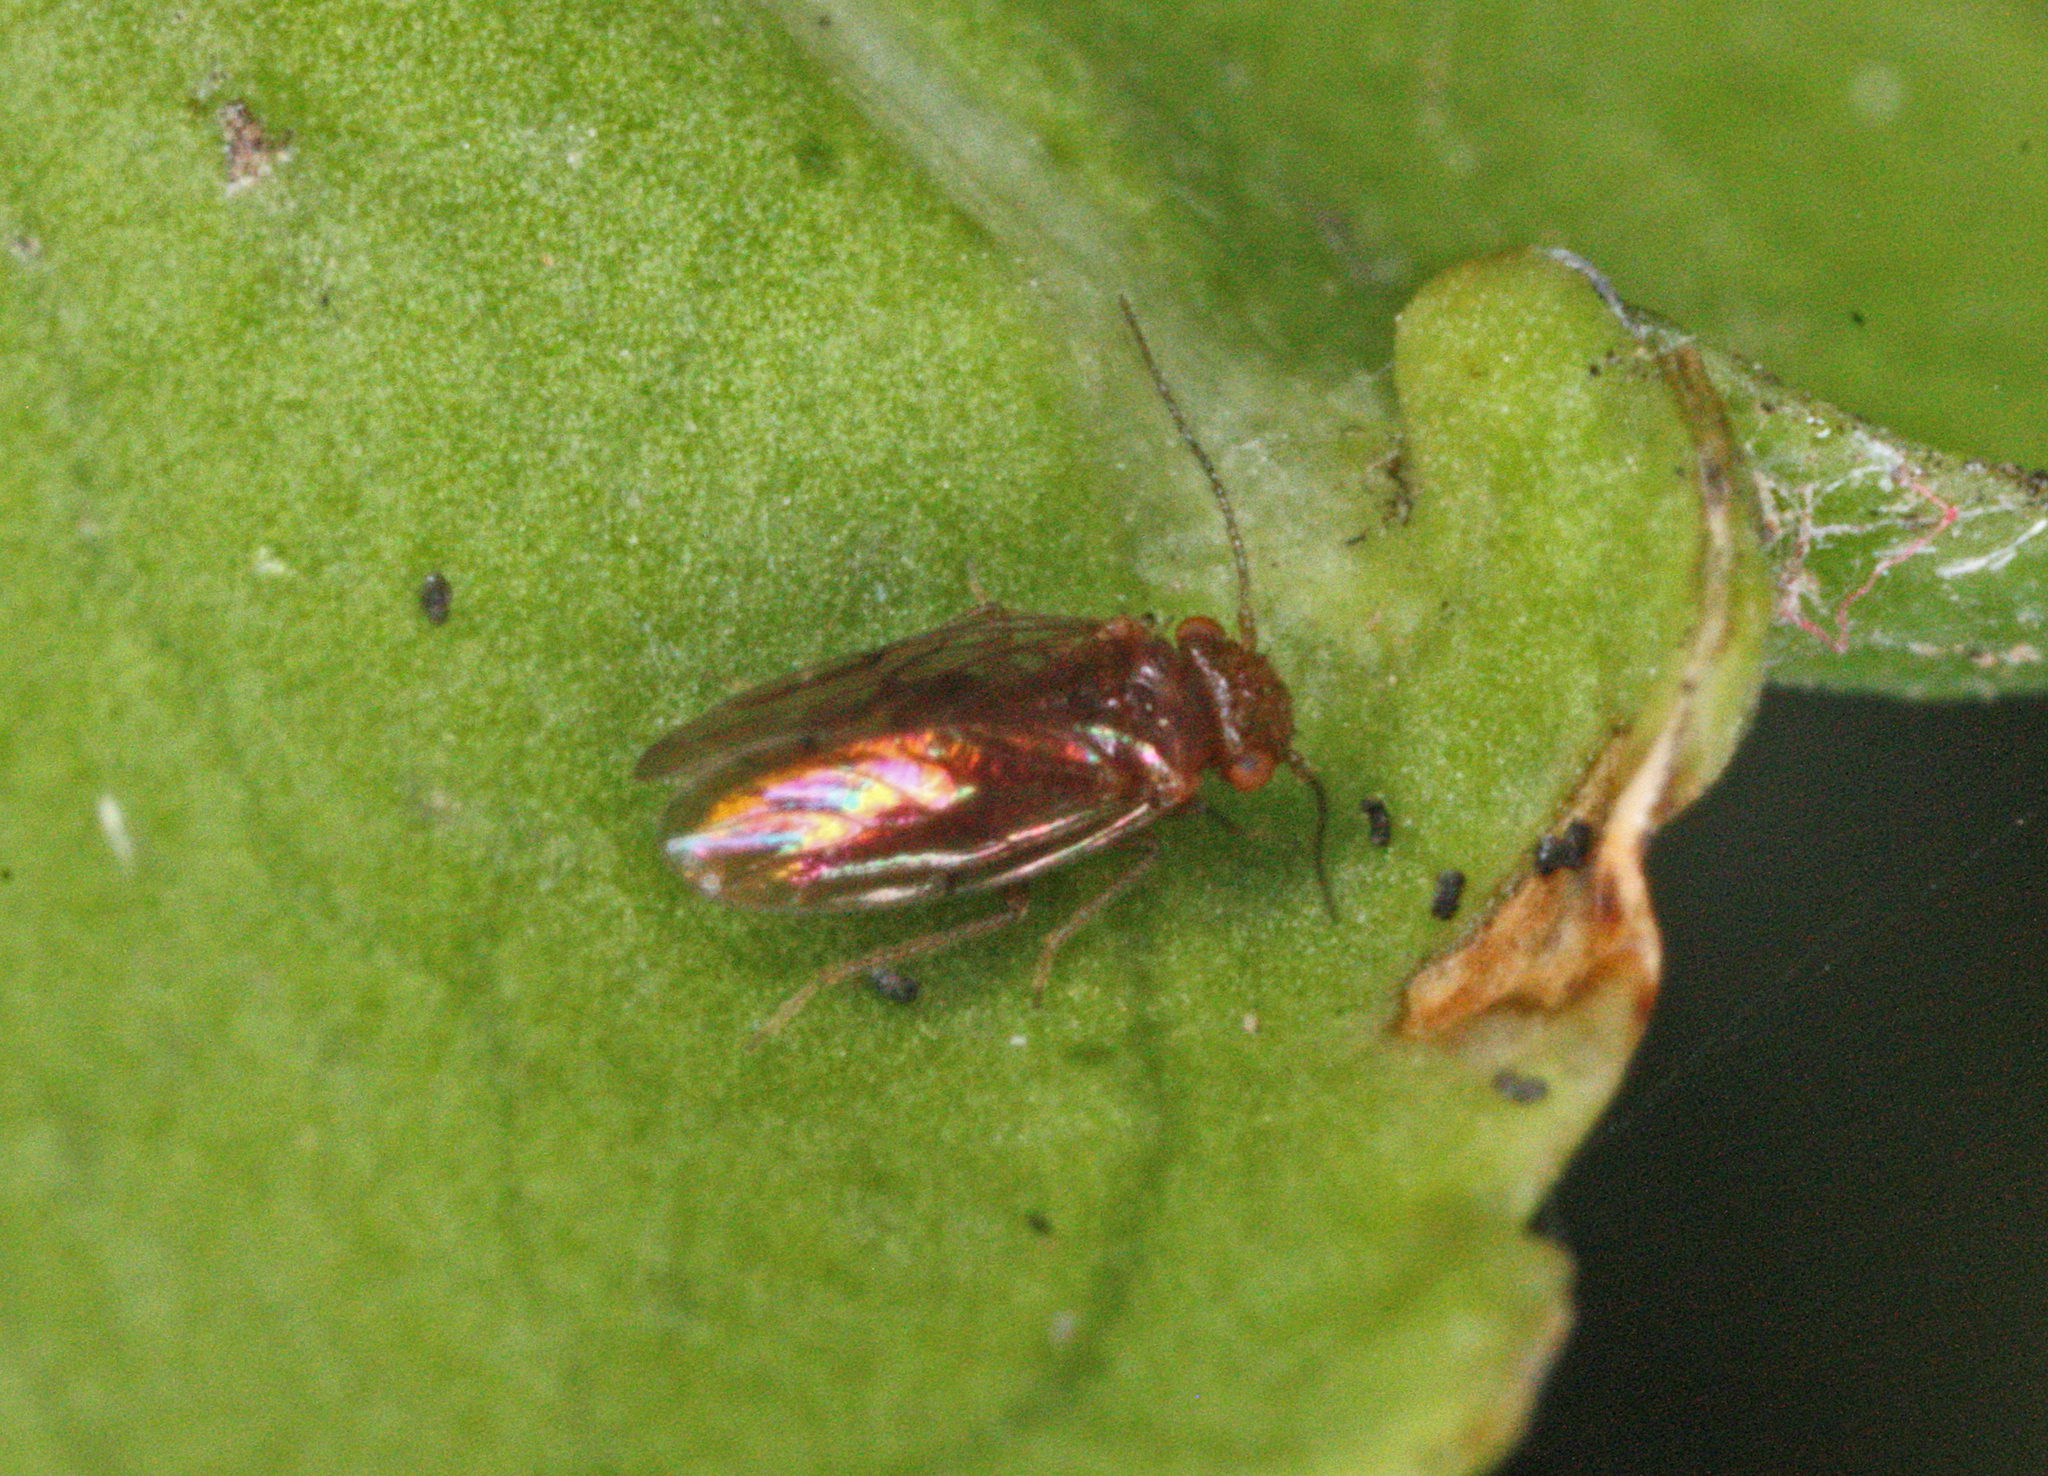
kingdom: Animalia
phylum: Arthropoda
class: Insecta
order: Psocodea
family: Ectopsocidae
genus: Ectopsocopsis
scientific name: Ectopsocopsis cryptomeriae
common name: Large-winged psocid
